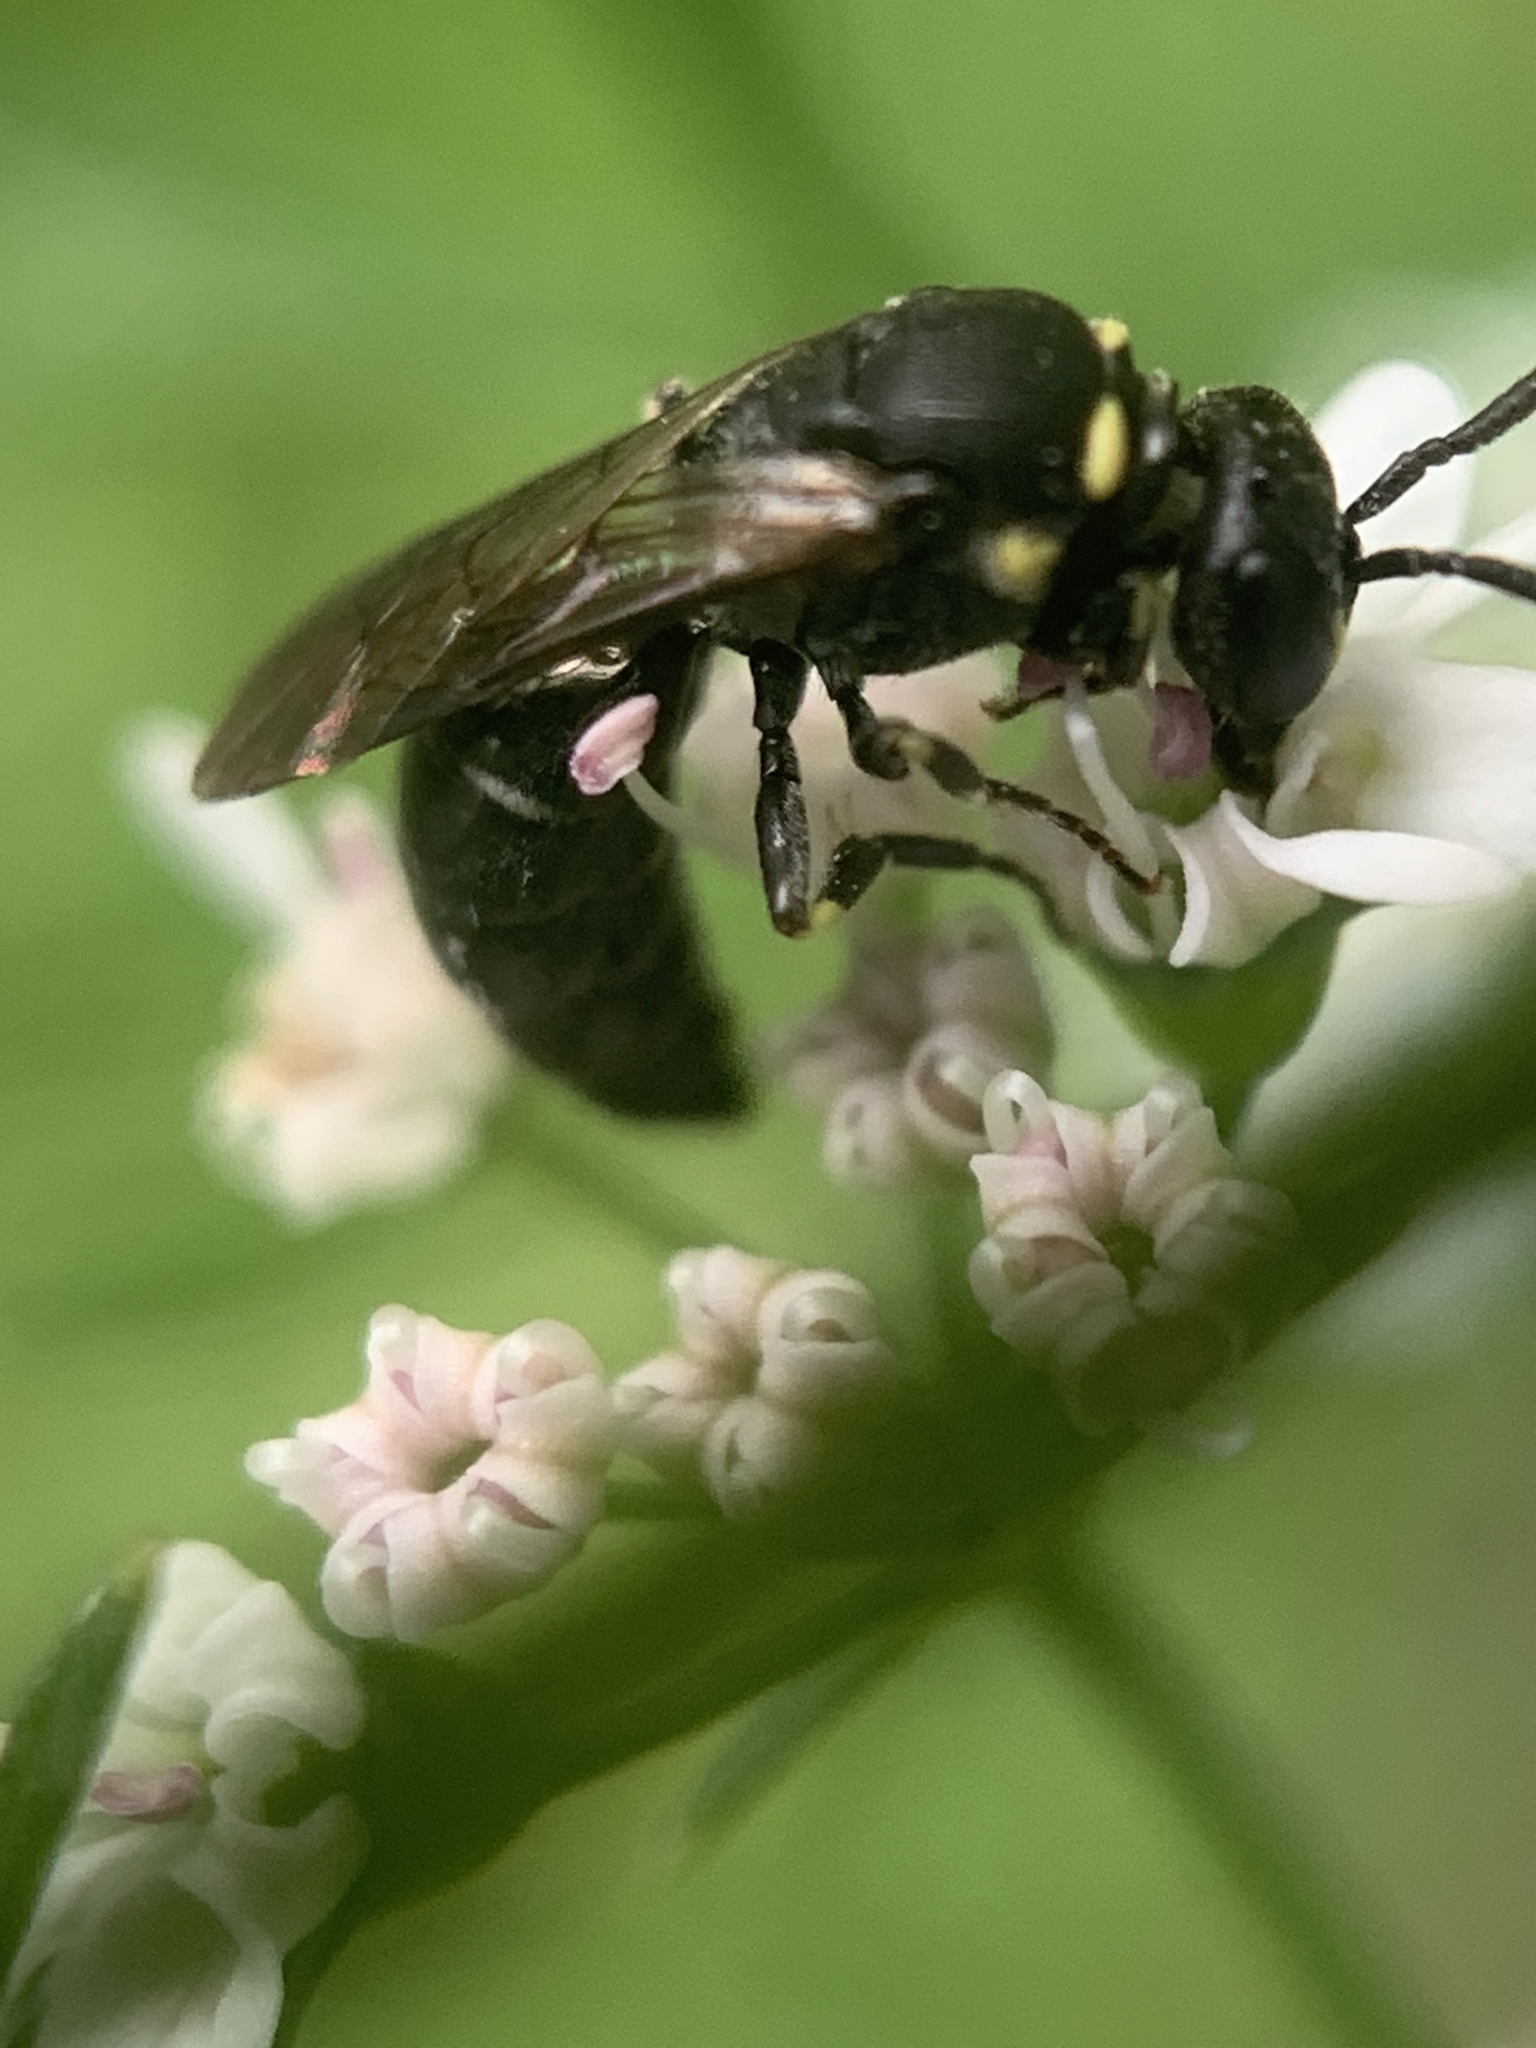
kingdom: Animalia
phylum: Arthropoda
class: Insecta
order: Hymenoptera
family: Colletidae
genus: Hylaeus
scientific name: Hylaeus modestus
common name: Yellow-faced bee
